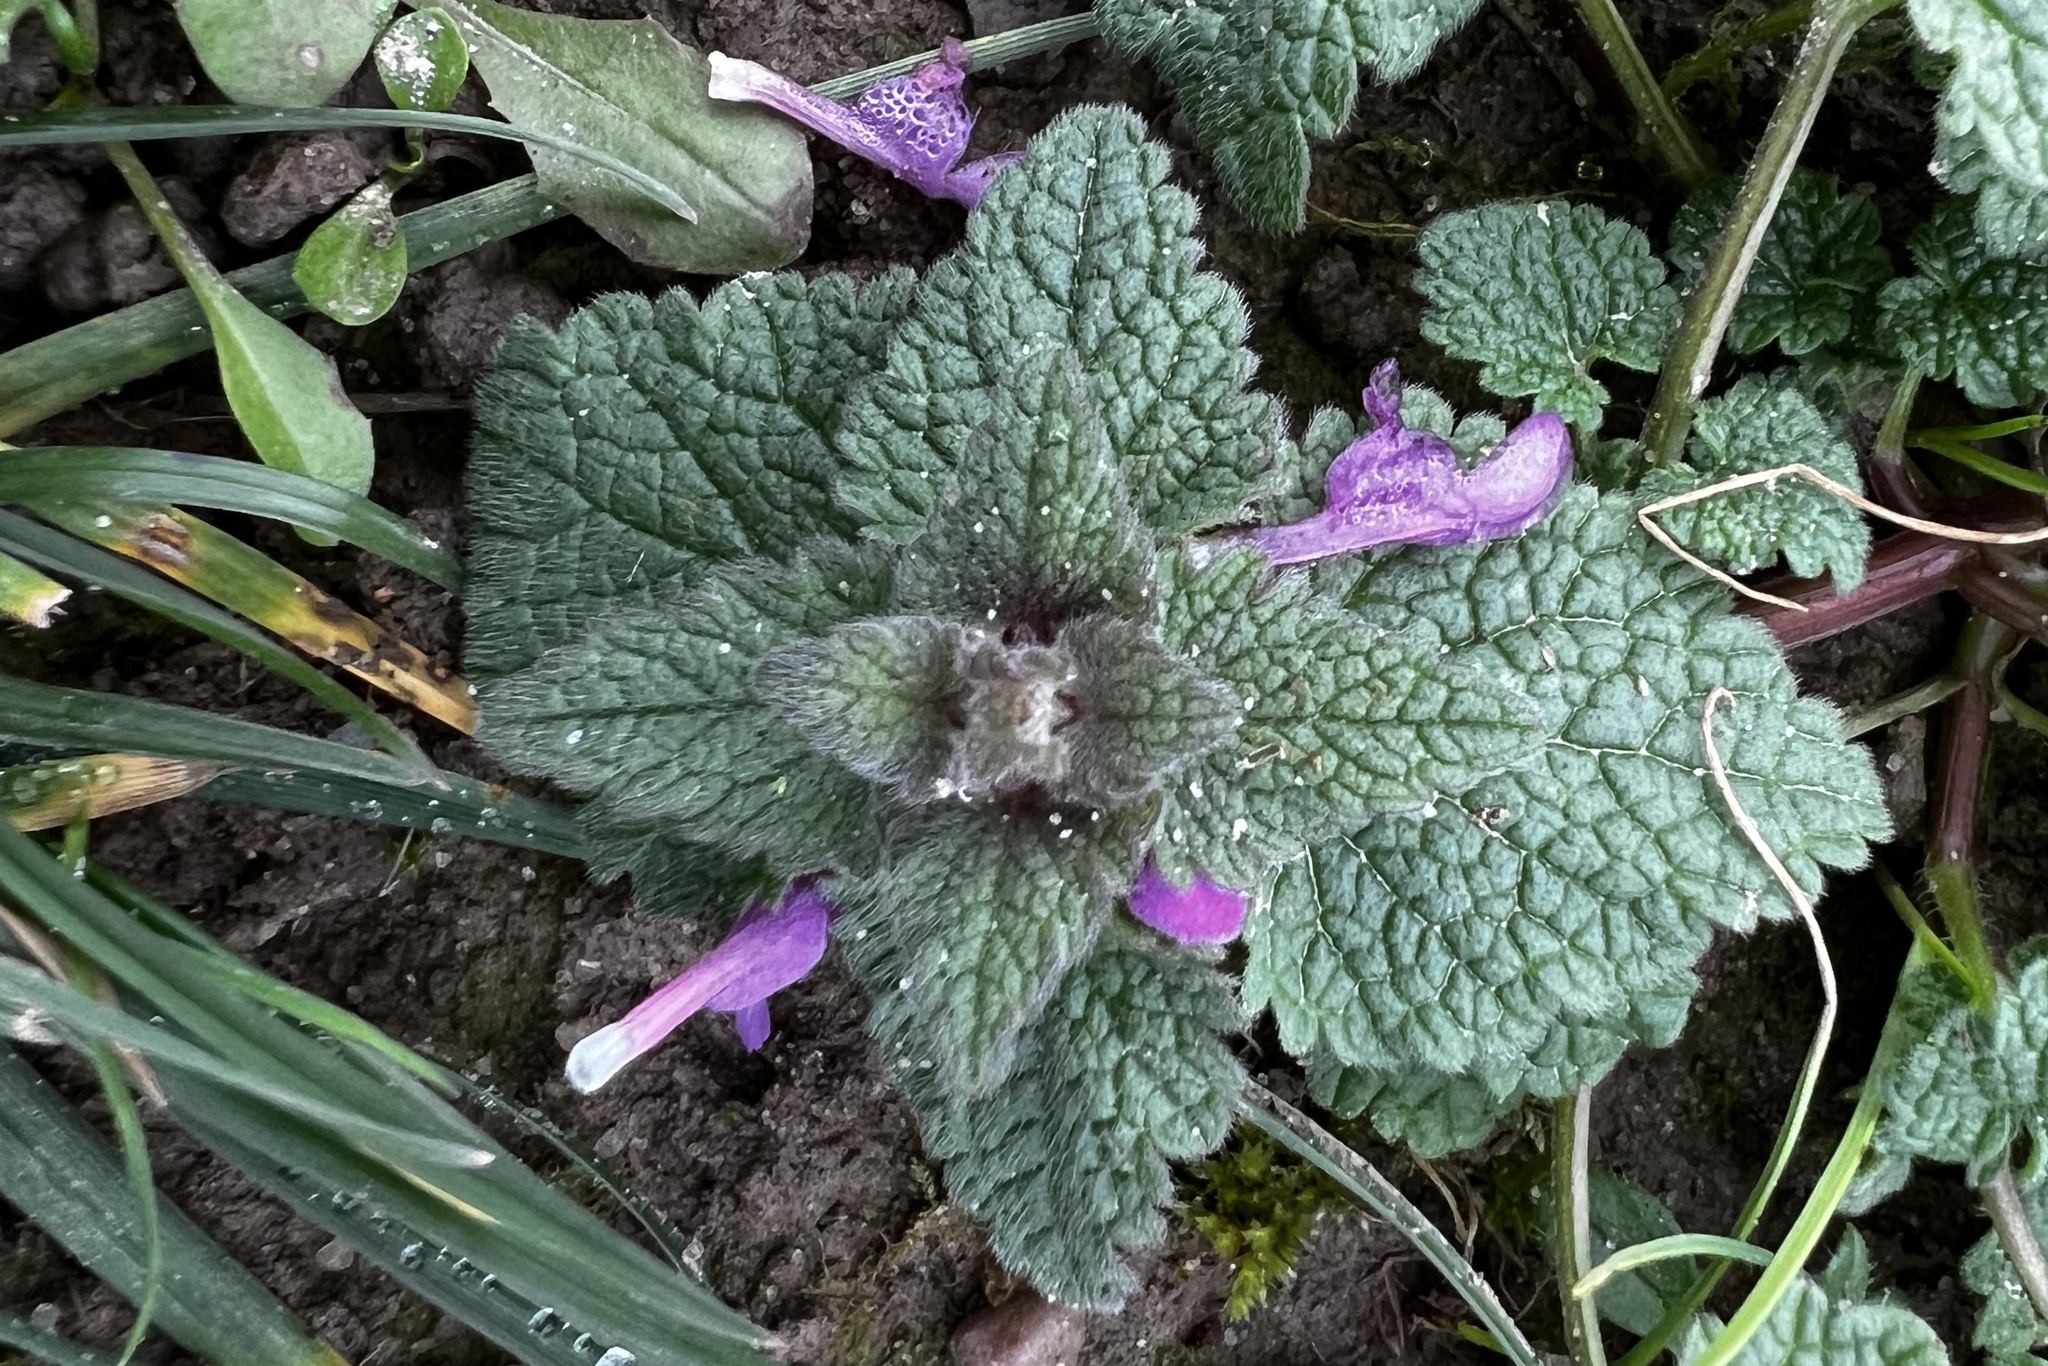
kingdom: Plantae
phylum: Tracheophyta
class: Magnoliopsida
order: Lamiales
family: Lamiaceae
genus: Lamium
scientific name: Lamium purpureum
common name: Red dead-nettle
